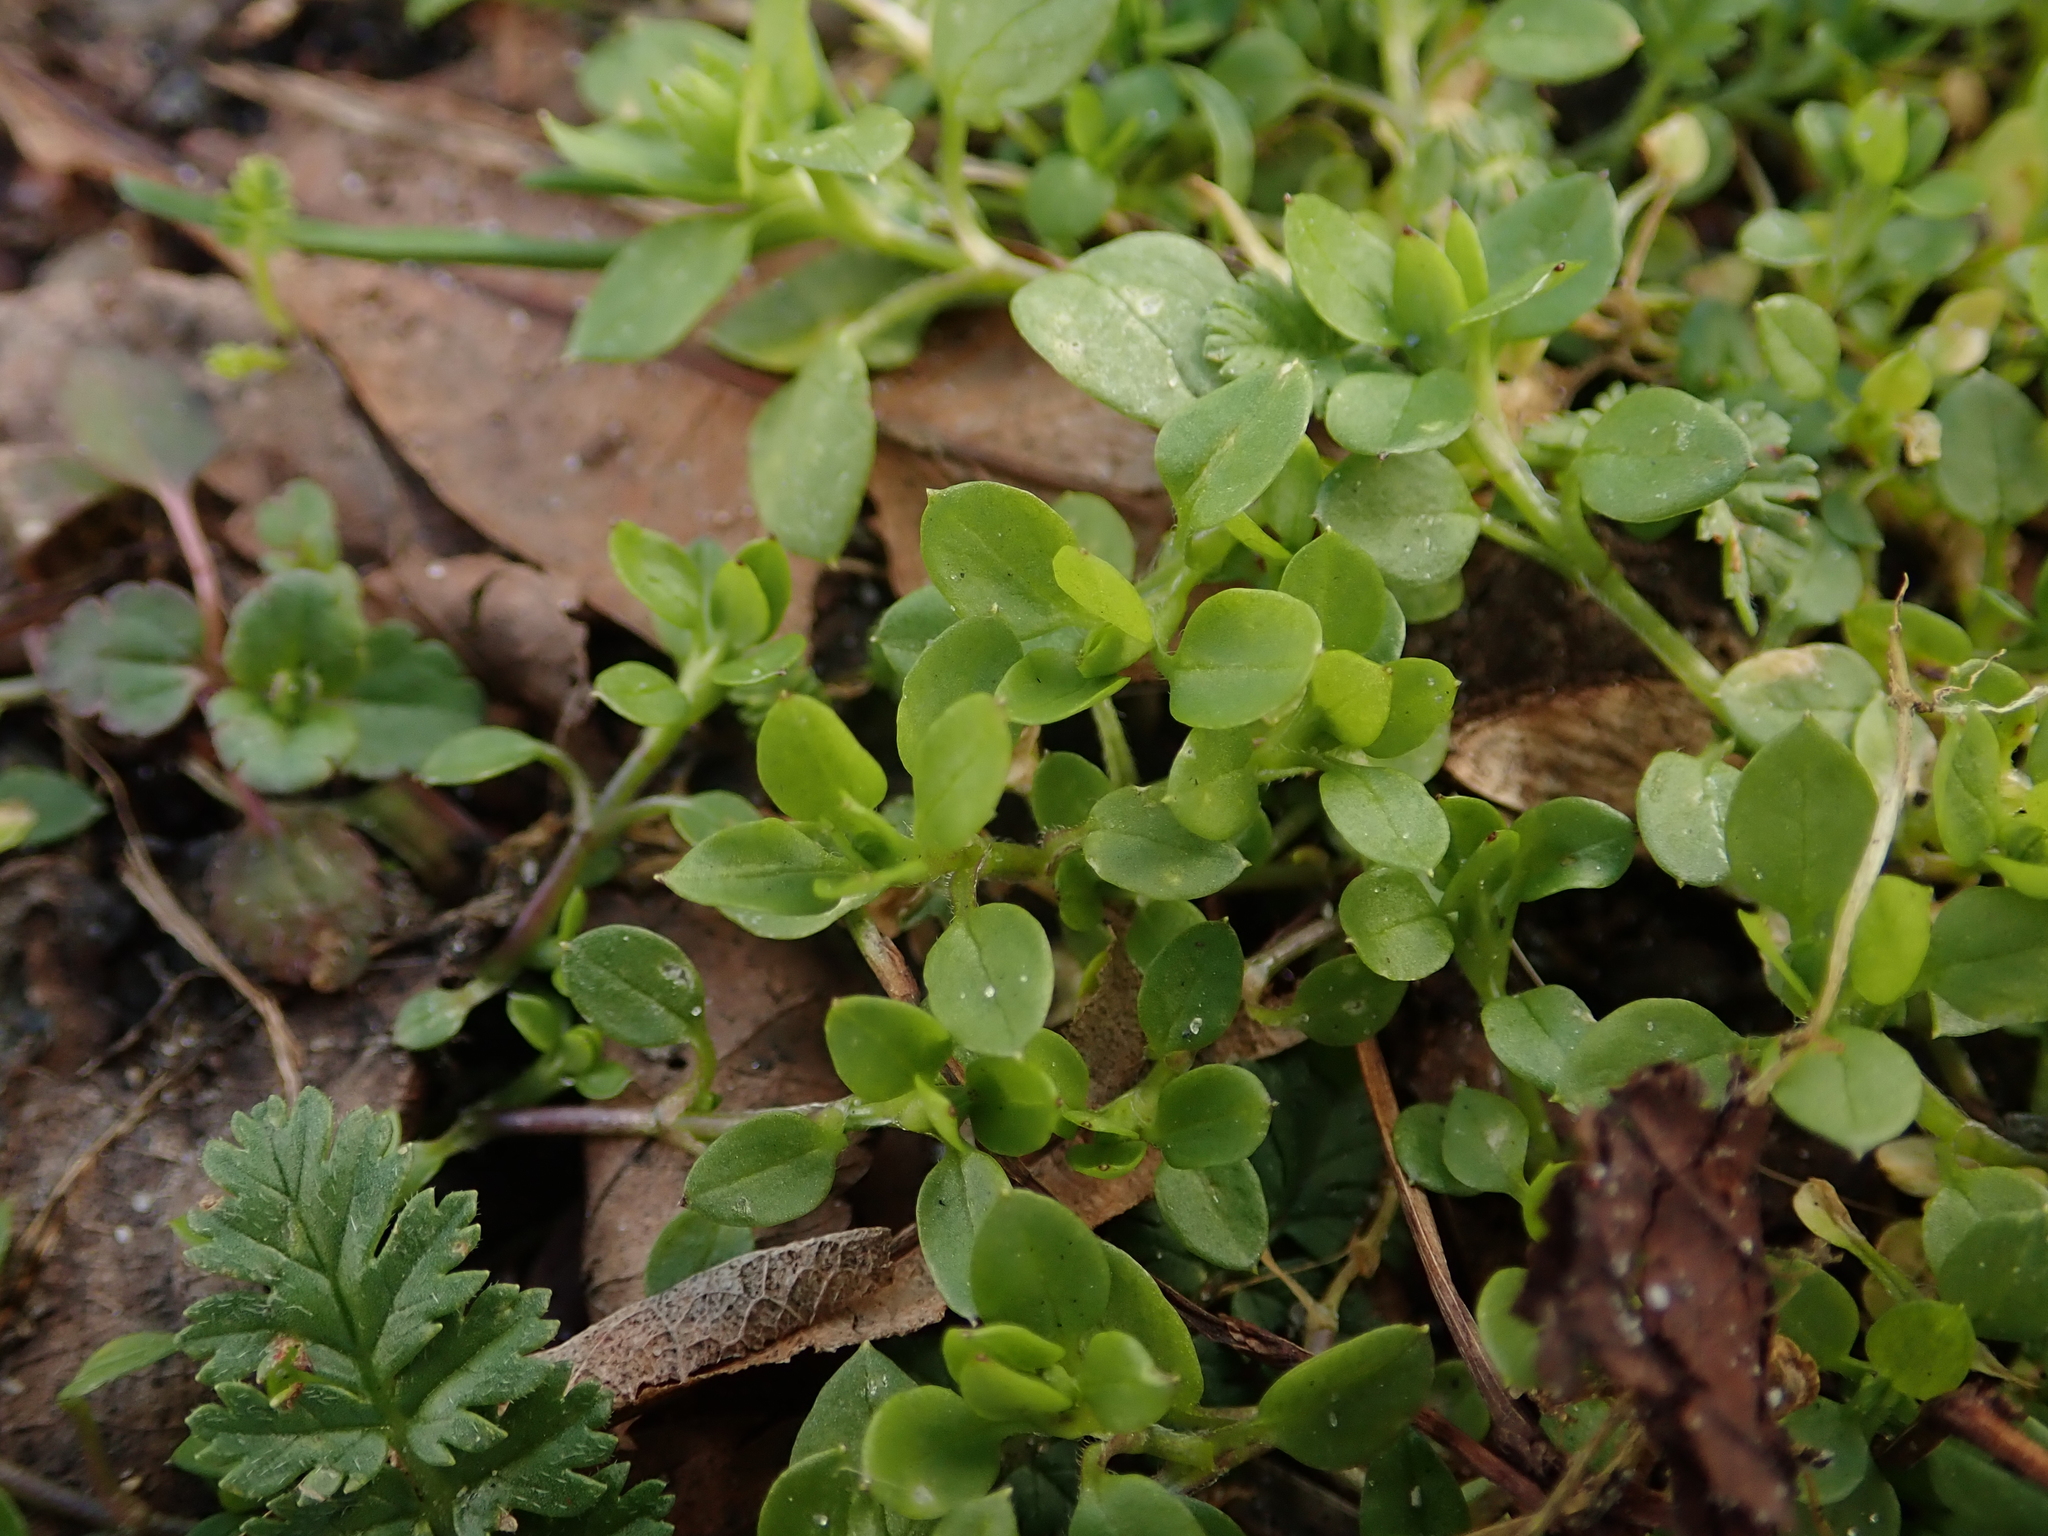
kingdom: Plantae
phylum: Tracheophyta
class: Magnoliopsida
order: Caryophyllales
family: Caryophyllaceae
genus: Stellaria
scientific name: Stellaria media
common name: Common chickweed
